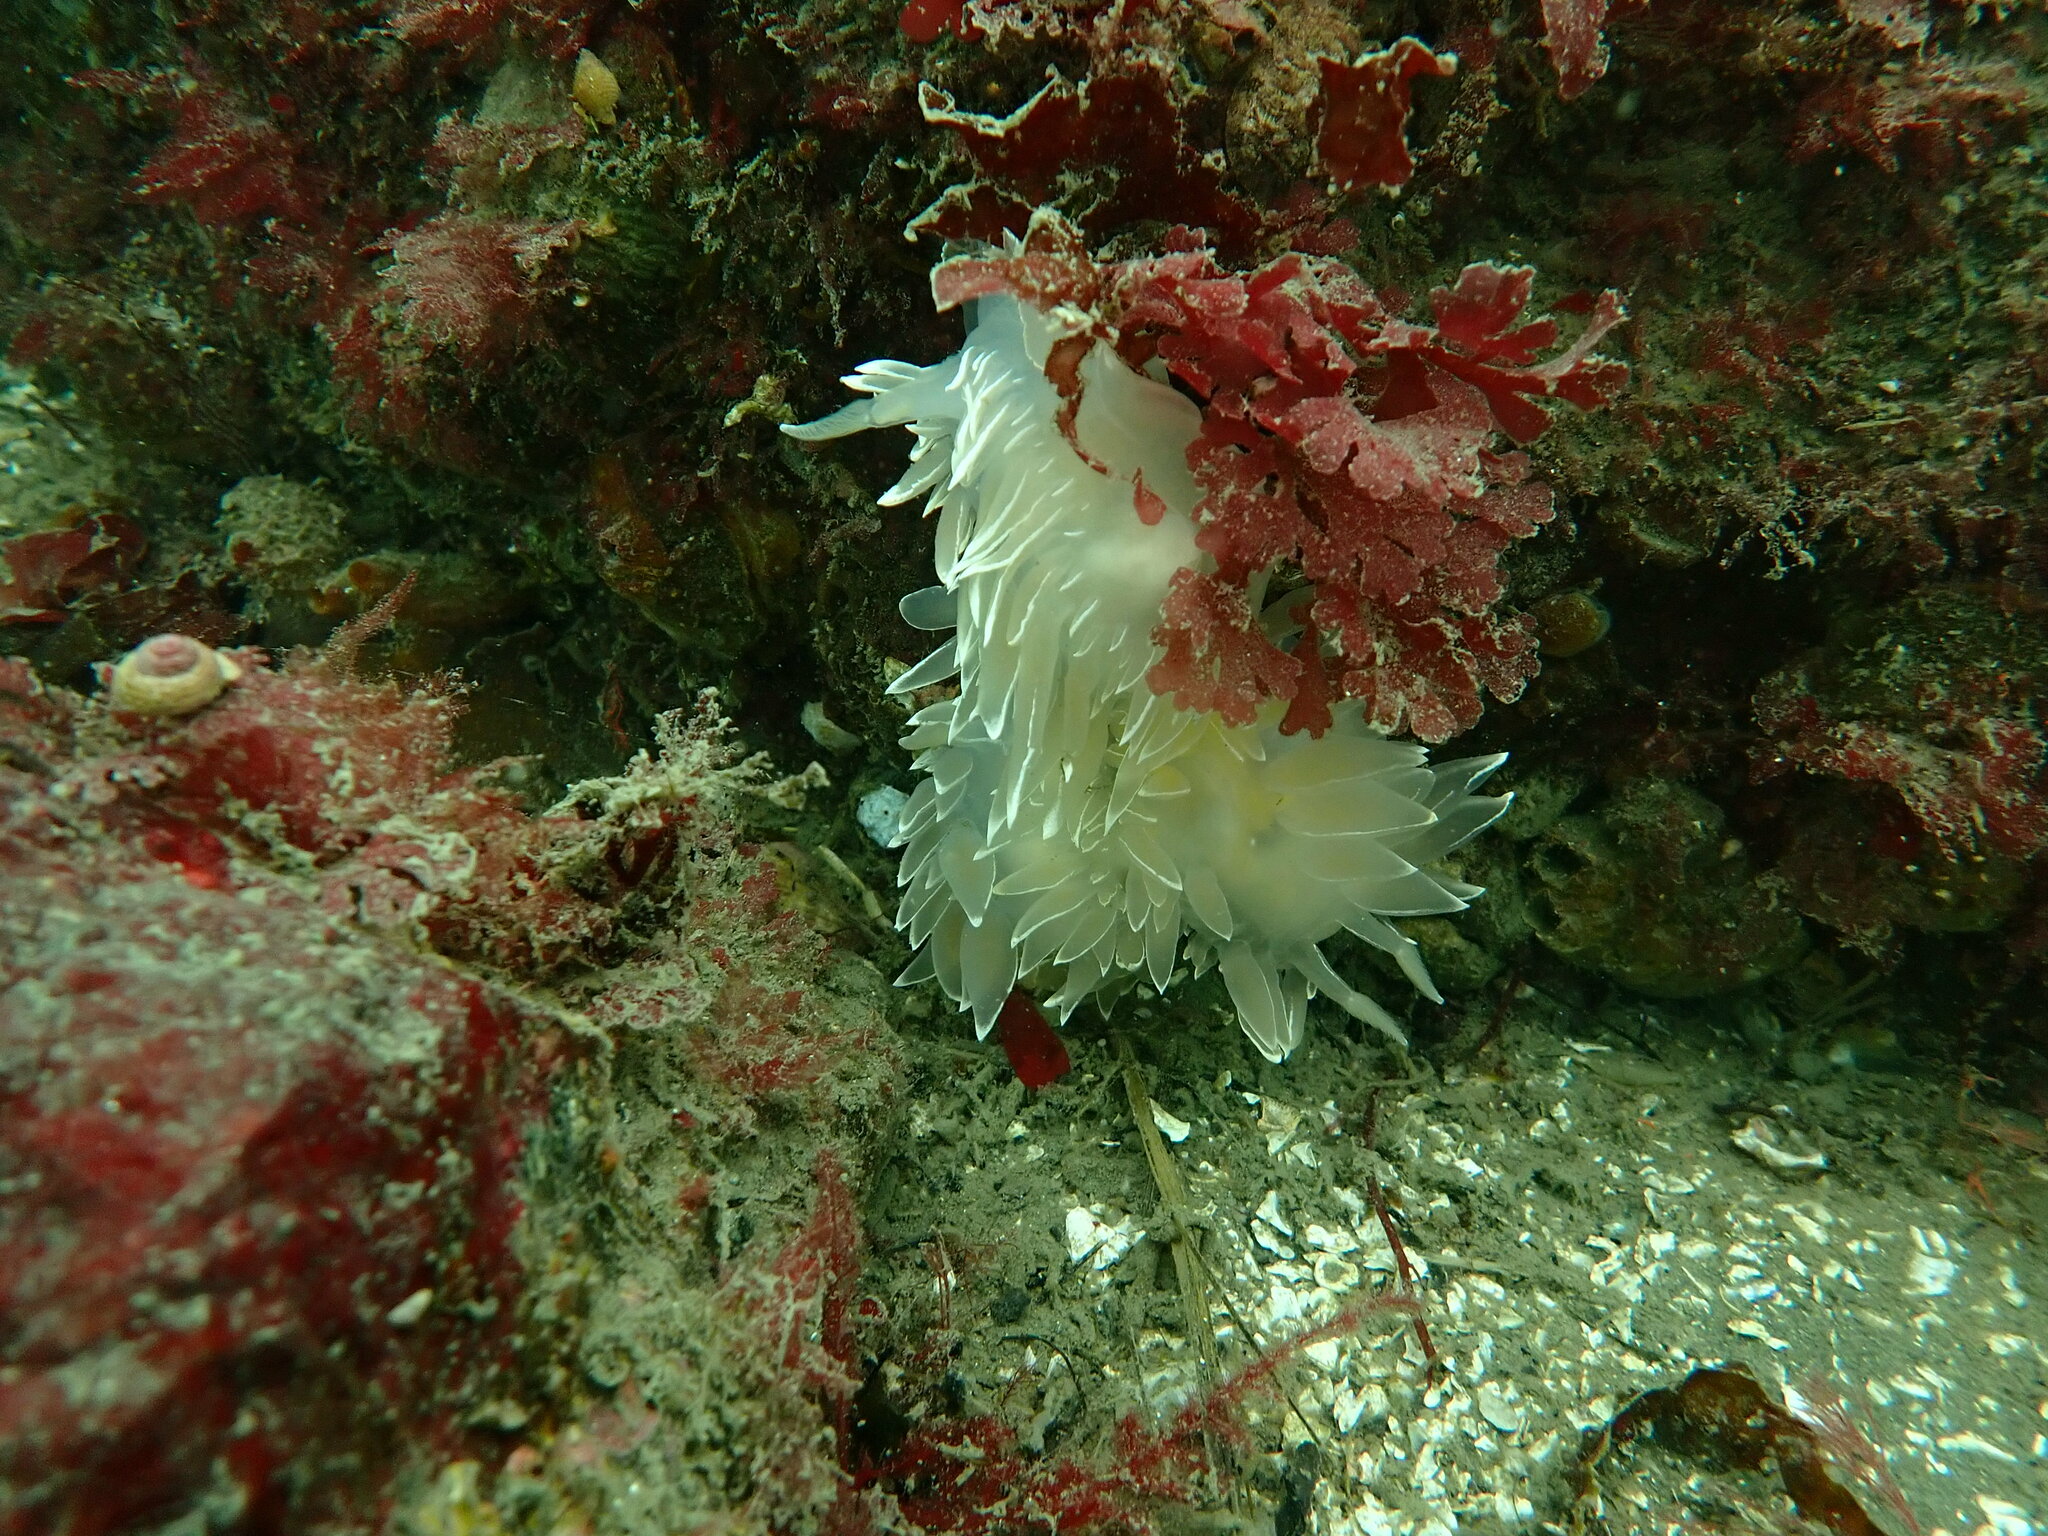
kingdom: Animalia
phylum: Mollusca
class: Gastropoda
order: Nudibranchia
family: Dironidae
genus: Dirona
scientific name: Dirona albolineata
